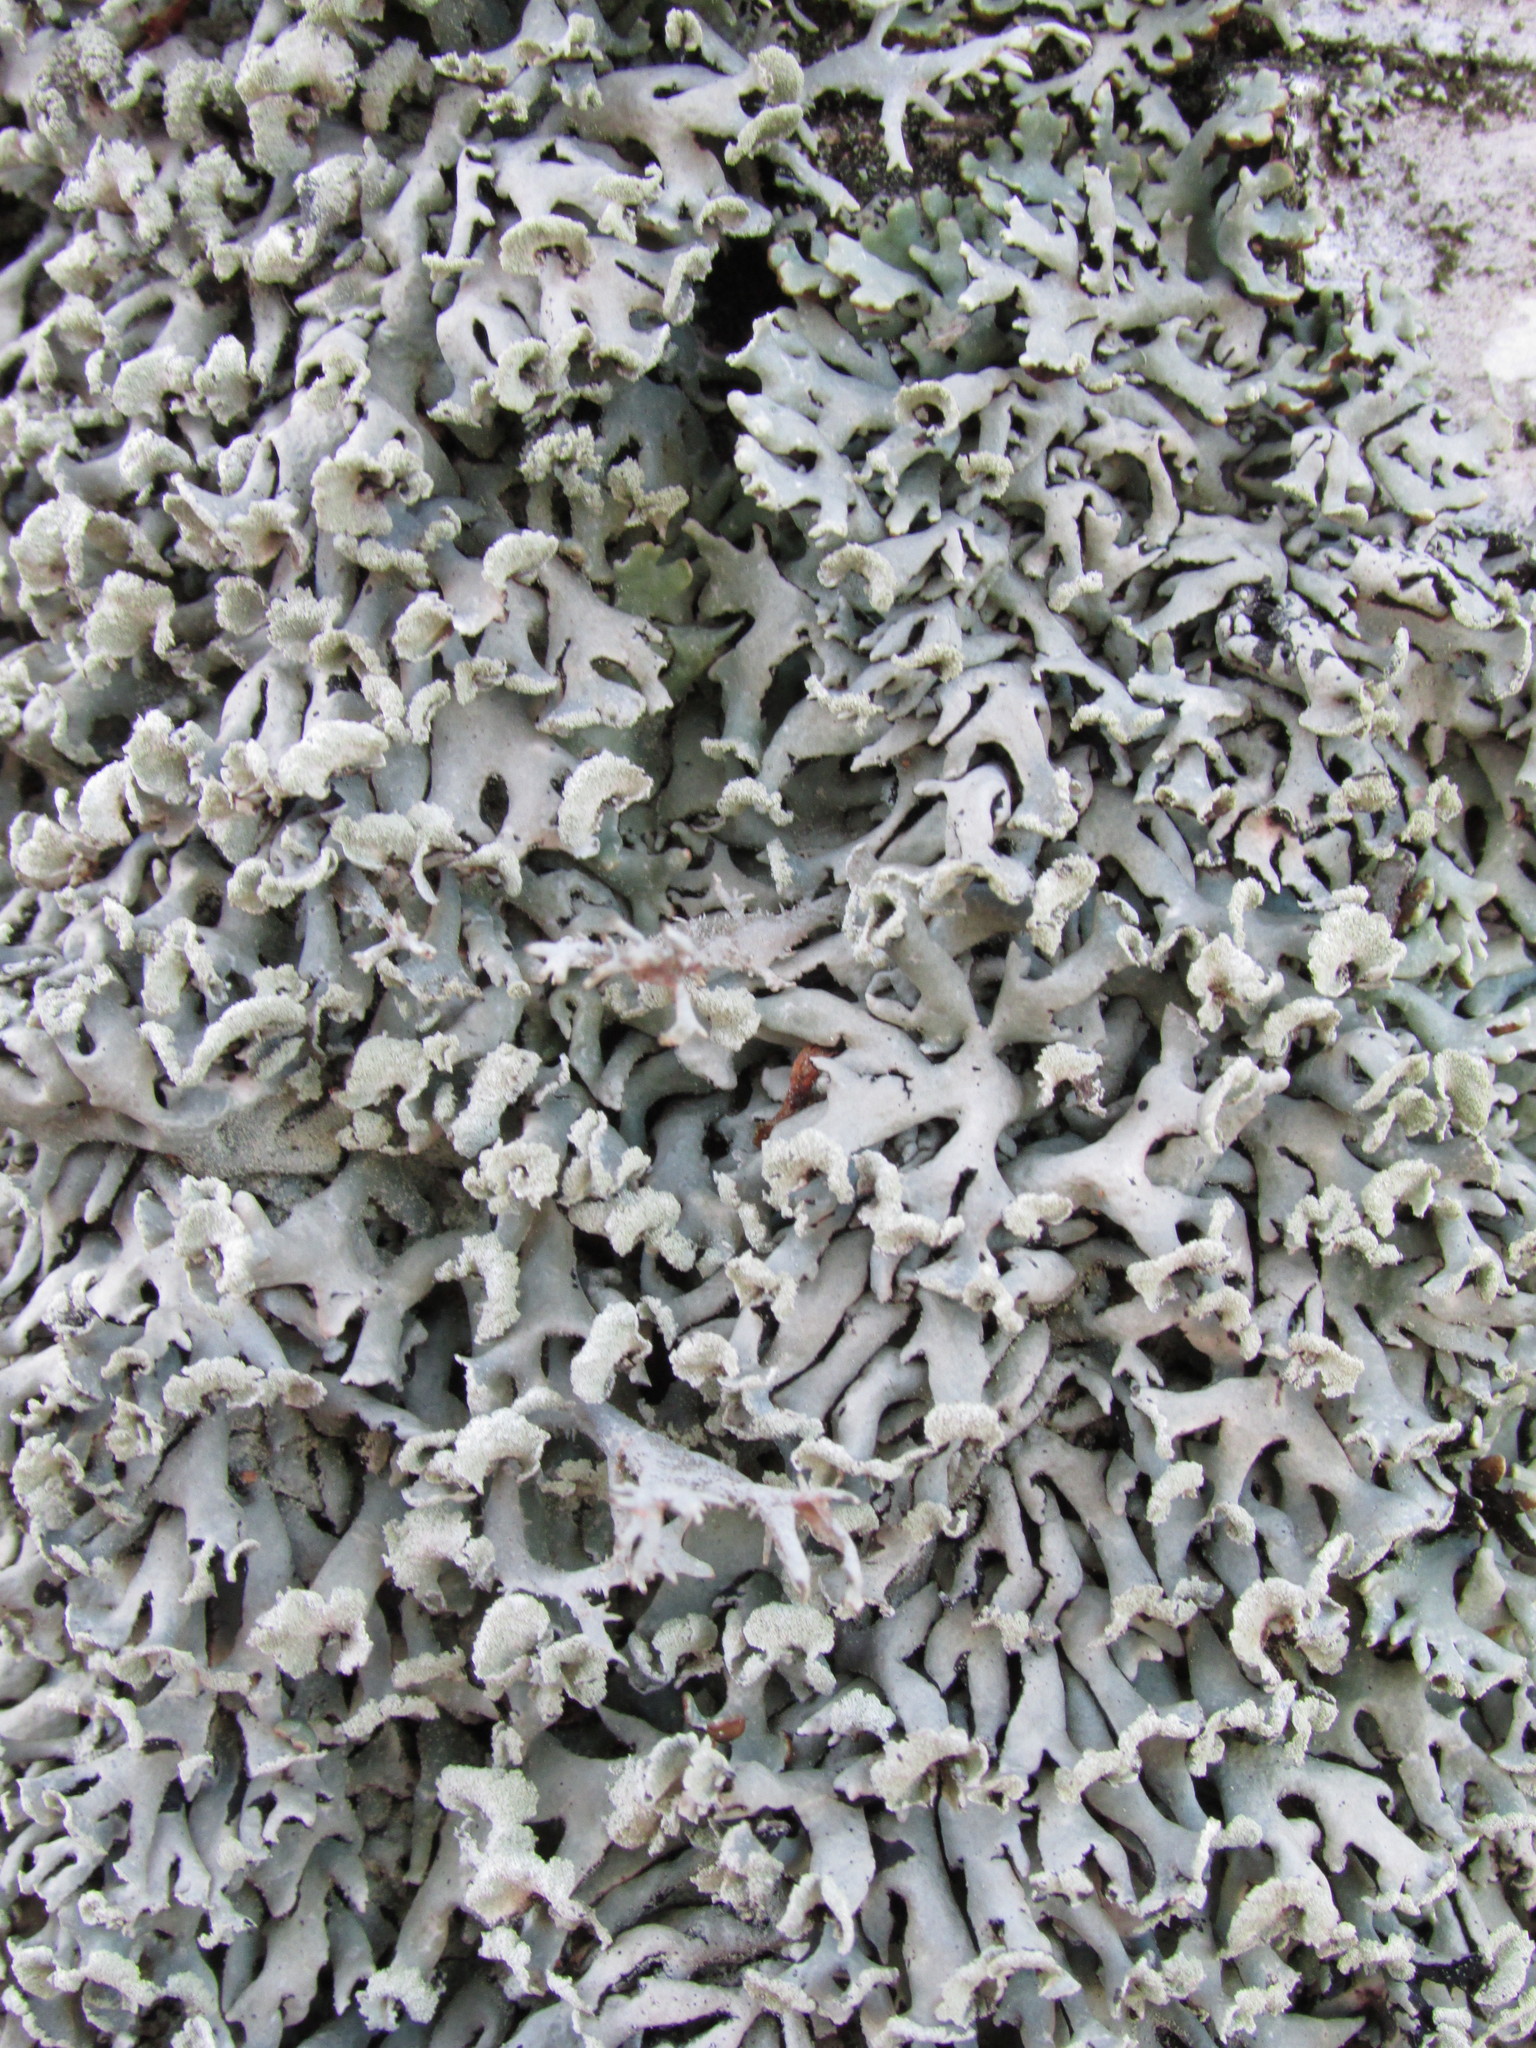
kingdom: Fungi
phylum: Ascomycota
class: Lecanoromycetes
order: Lecanorales
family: Parmeliaceae
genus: Hypogymnia
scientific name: Hypogymnia physodes
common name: Dark crottle
